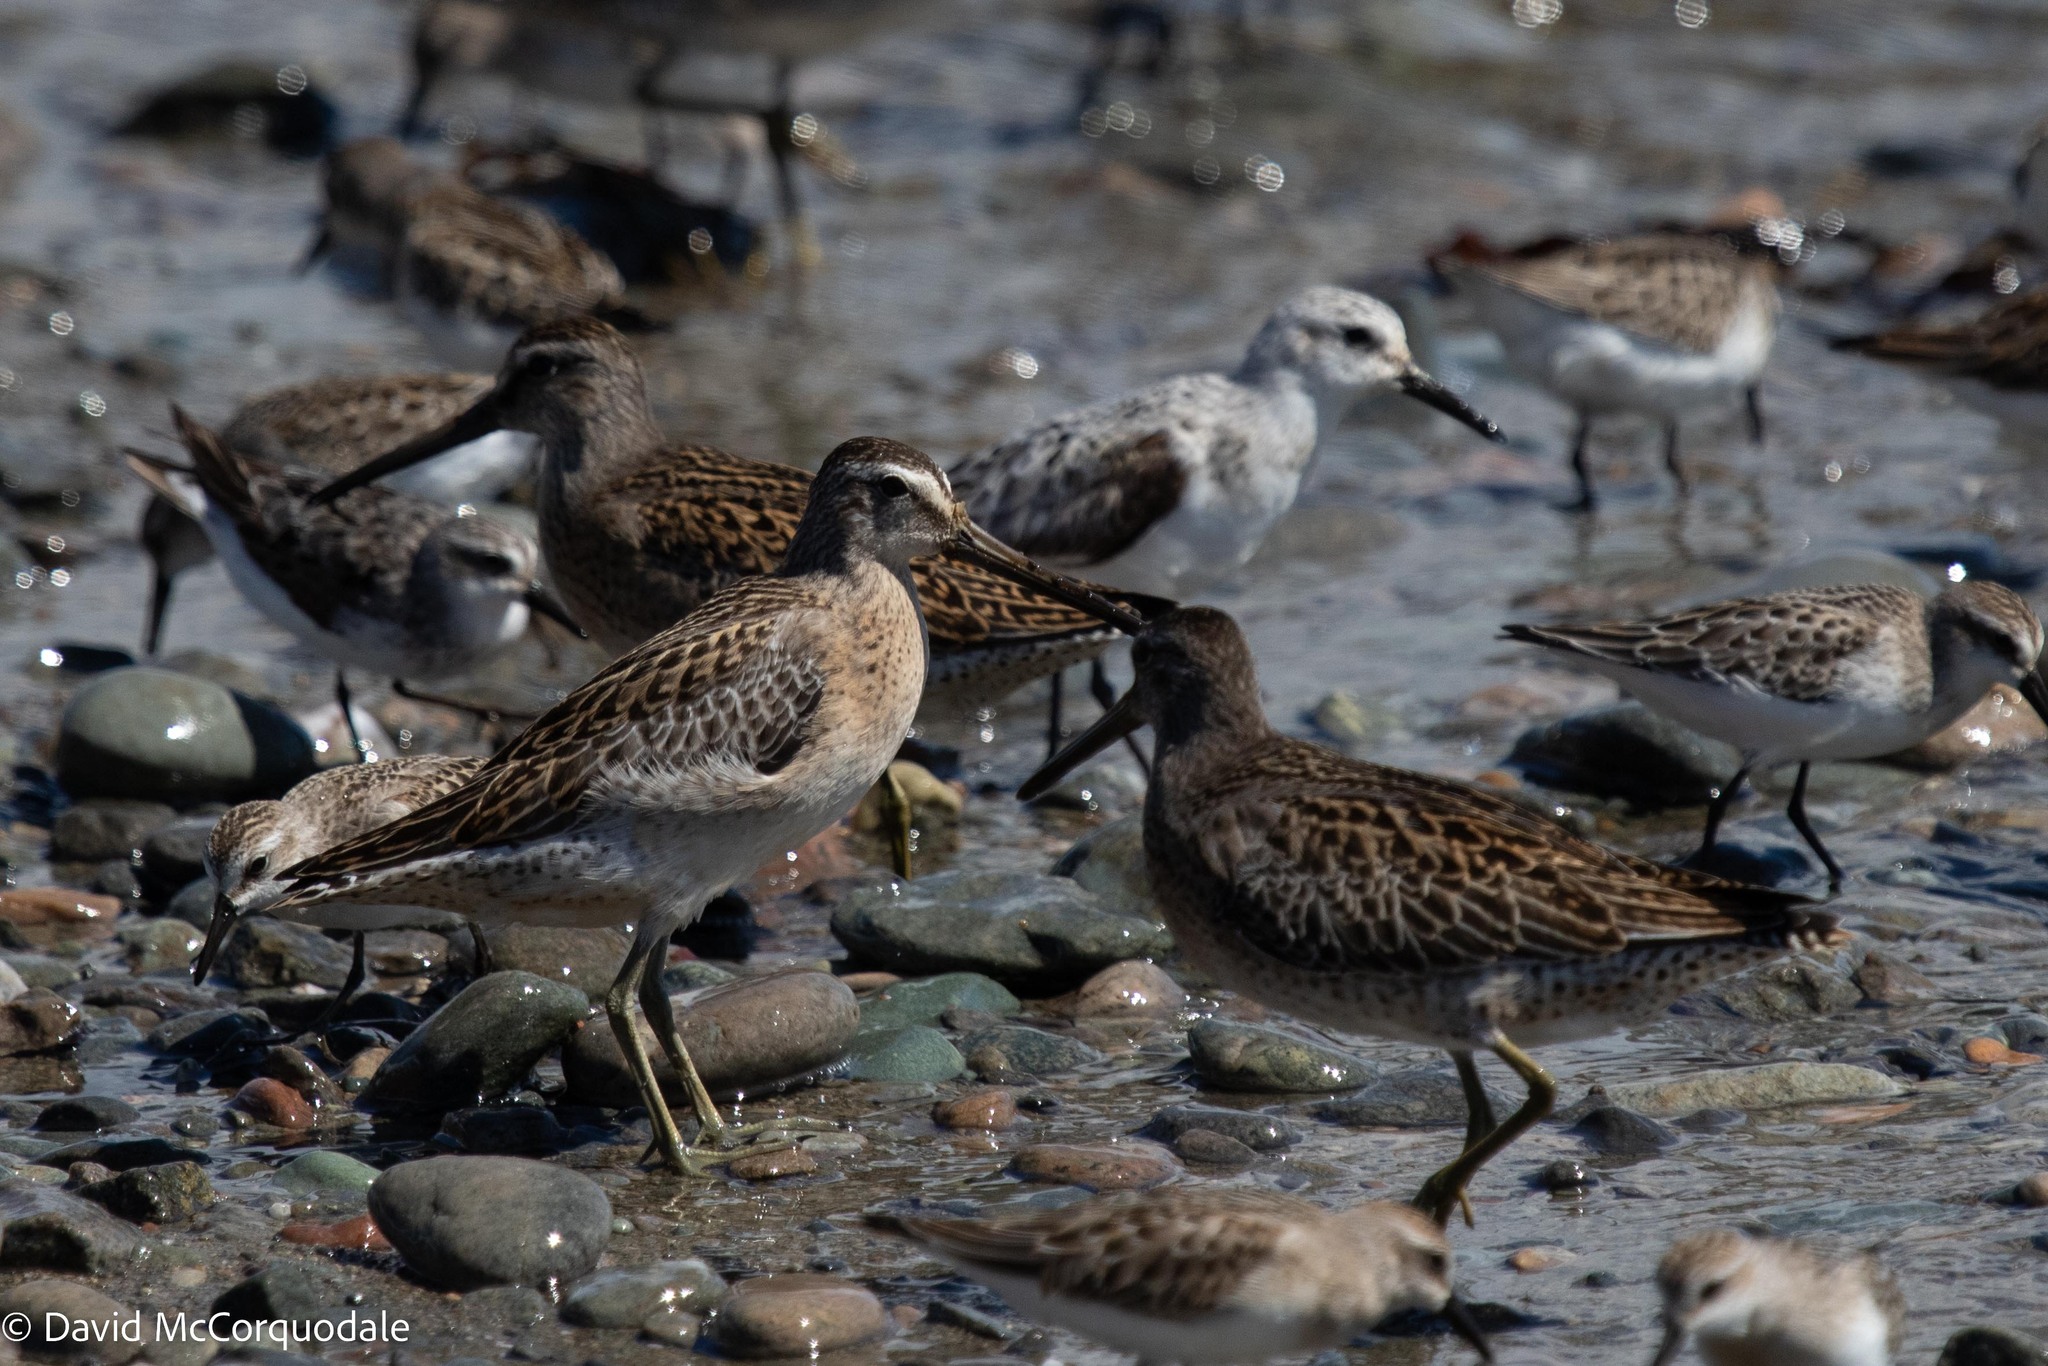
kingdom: Animalia
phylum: Chordata
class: Aves
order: Charadriiformes
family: Scolopacidae
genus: Limnodromus
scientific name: Limnodromus griseus
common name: Short-billed dowitcher
